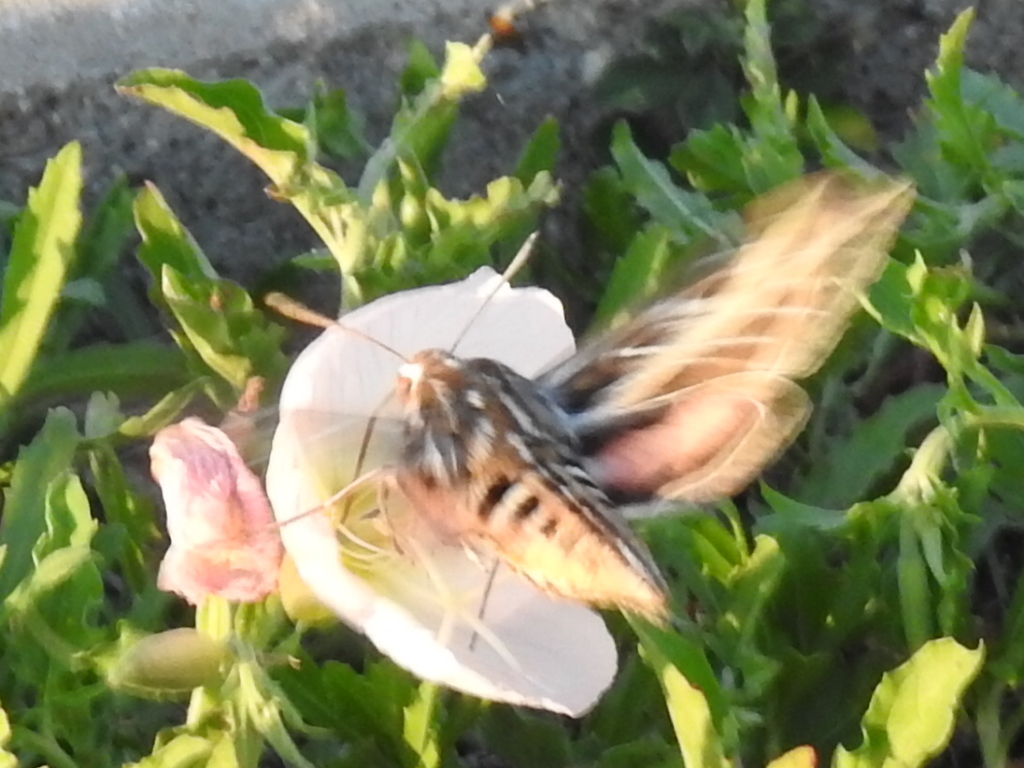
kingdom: Animalia
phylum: Arthropoda
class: Insecta
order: Lepidoptera
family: Sphingidae
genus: Hyles
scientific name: Hyles lineata
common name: White-lined sphinx
